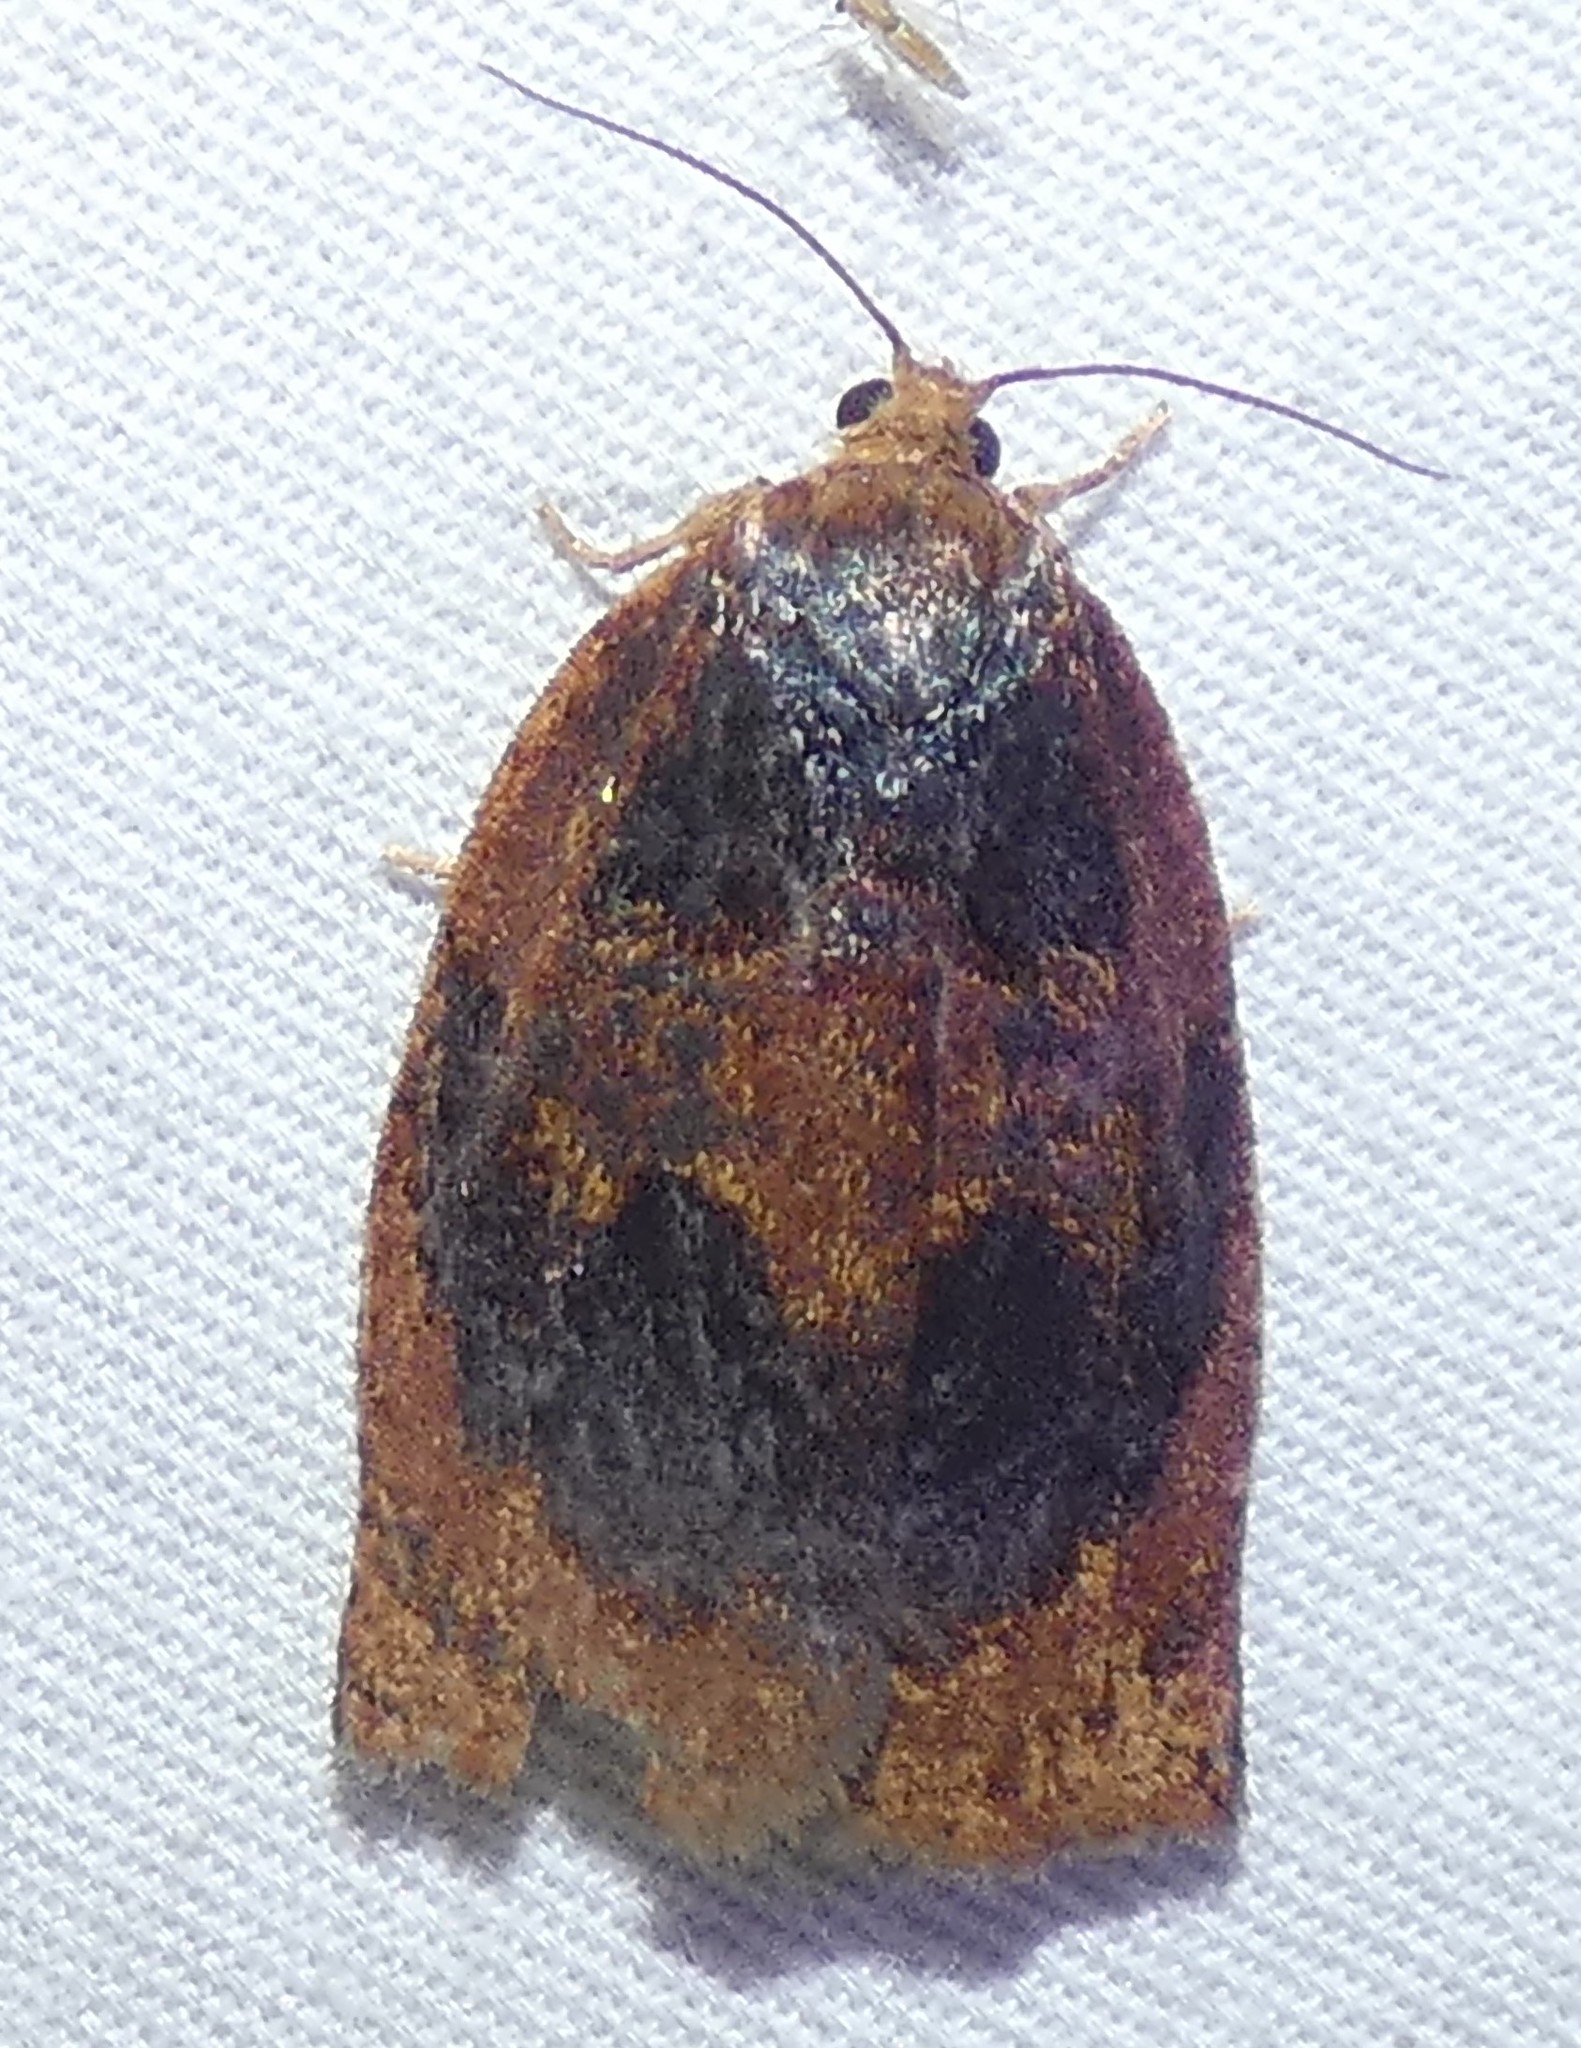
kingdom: Animalia
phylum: Arthropoda
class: Insecta
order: Lepidoptera
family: Tortricidae
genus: Archips
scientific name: Archips infumatana
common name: Smoked leafroller moth
